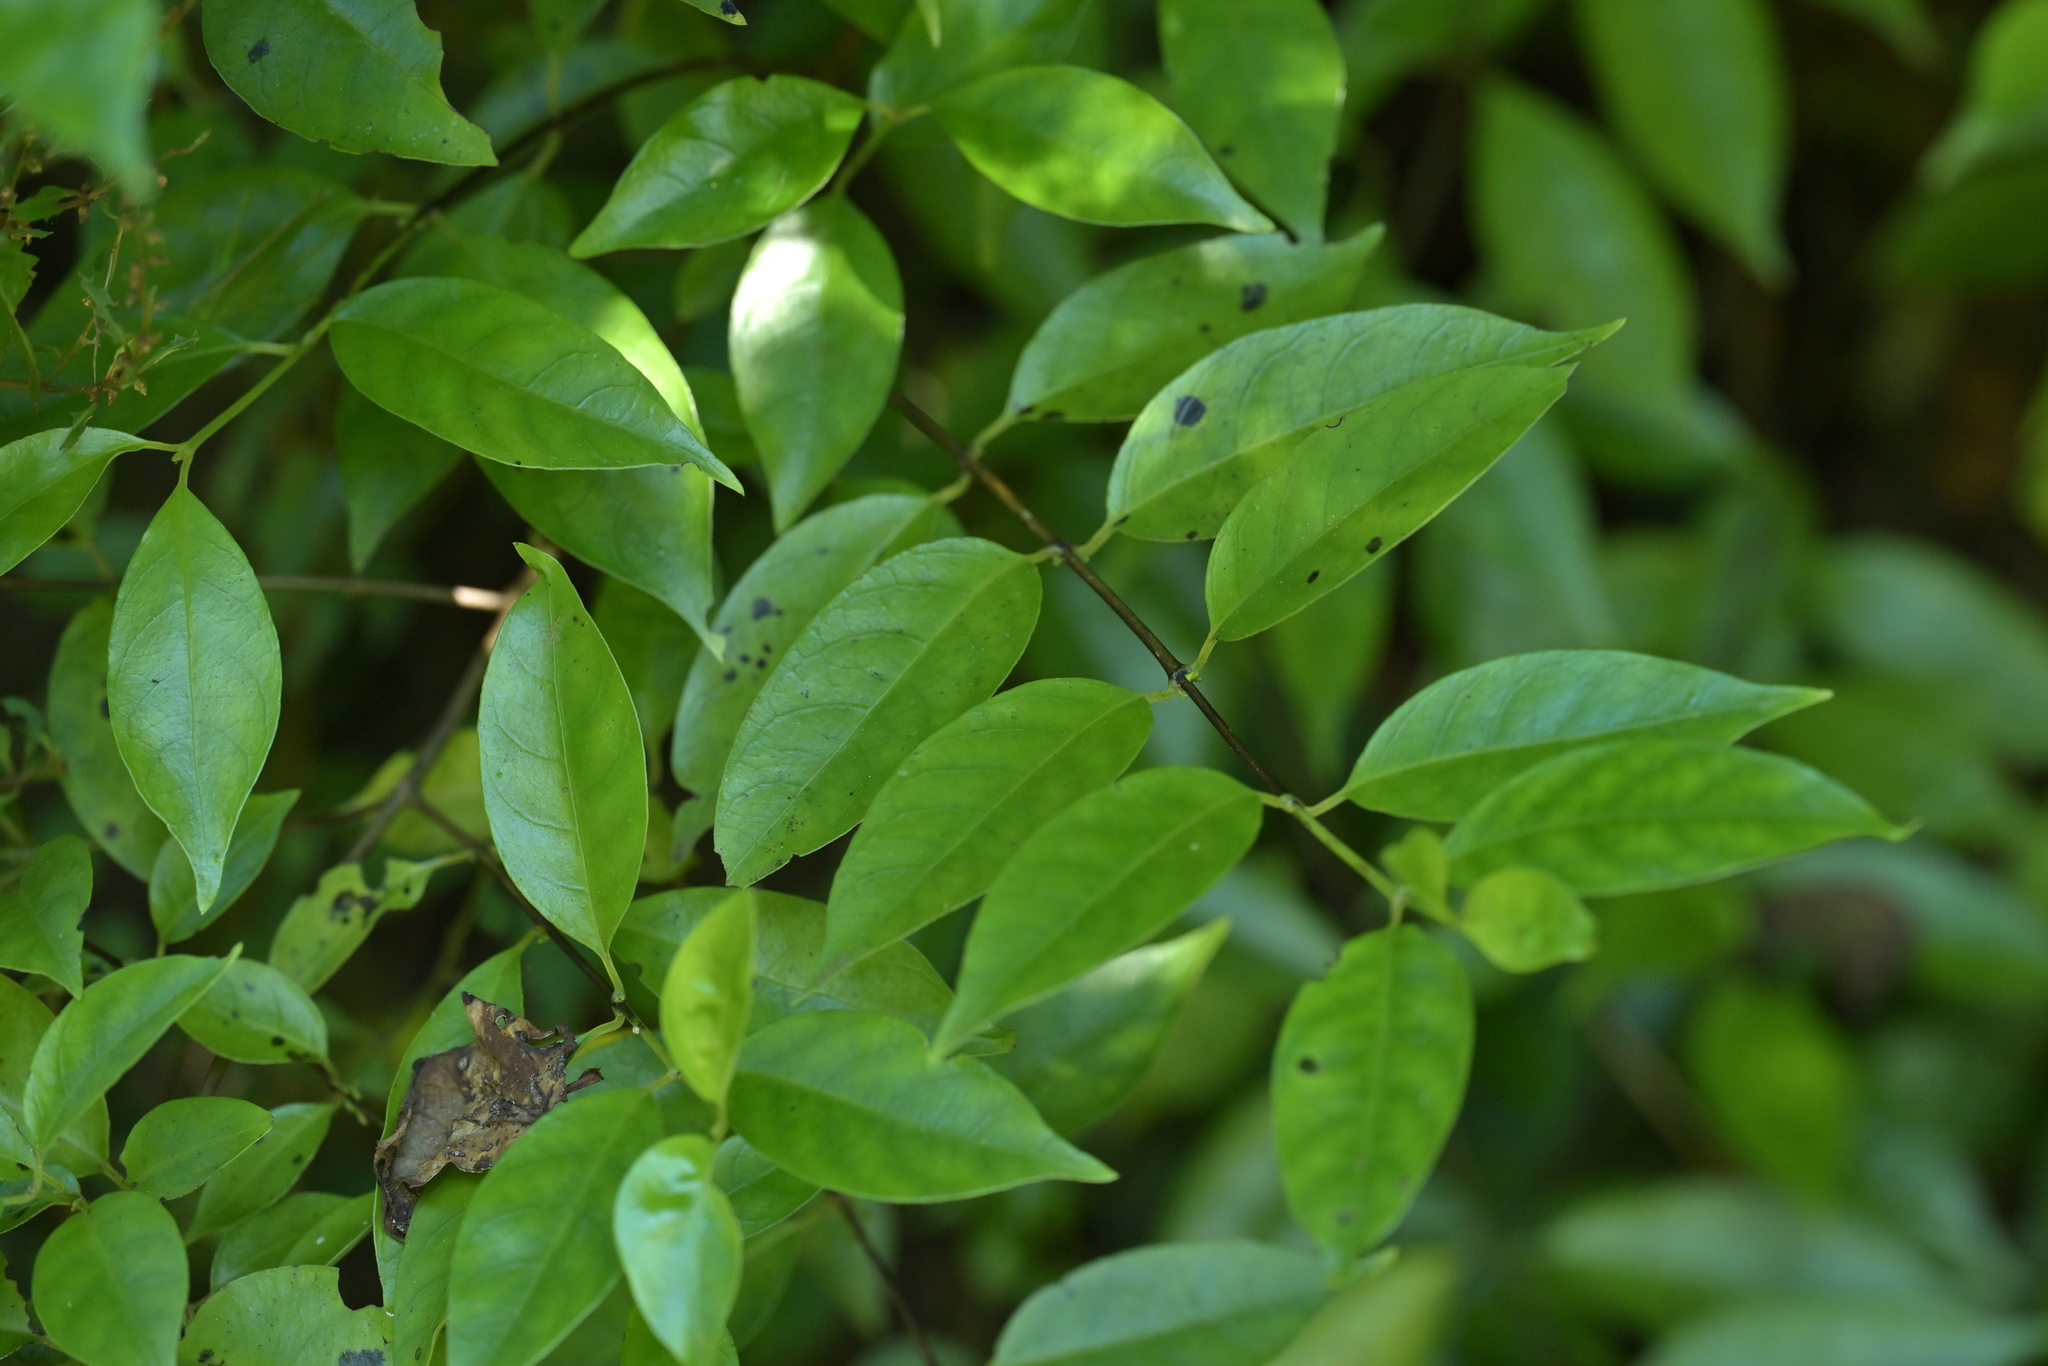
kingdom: Plantae
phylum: Tracheophyta
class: Magnoliopsida
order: Gentianales
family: Loganiaceae
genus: Geniostoma
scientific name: Geniostoma ligustrifolium
